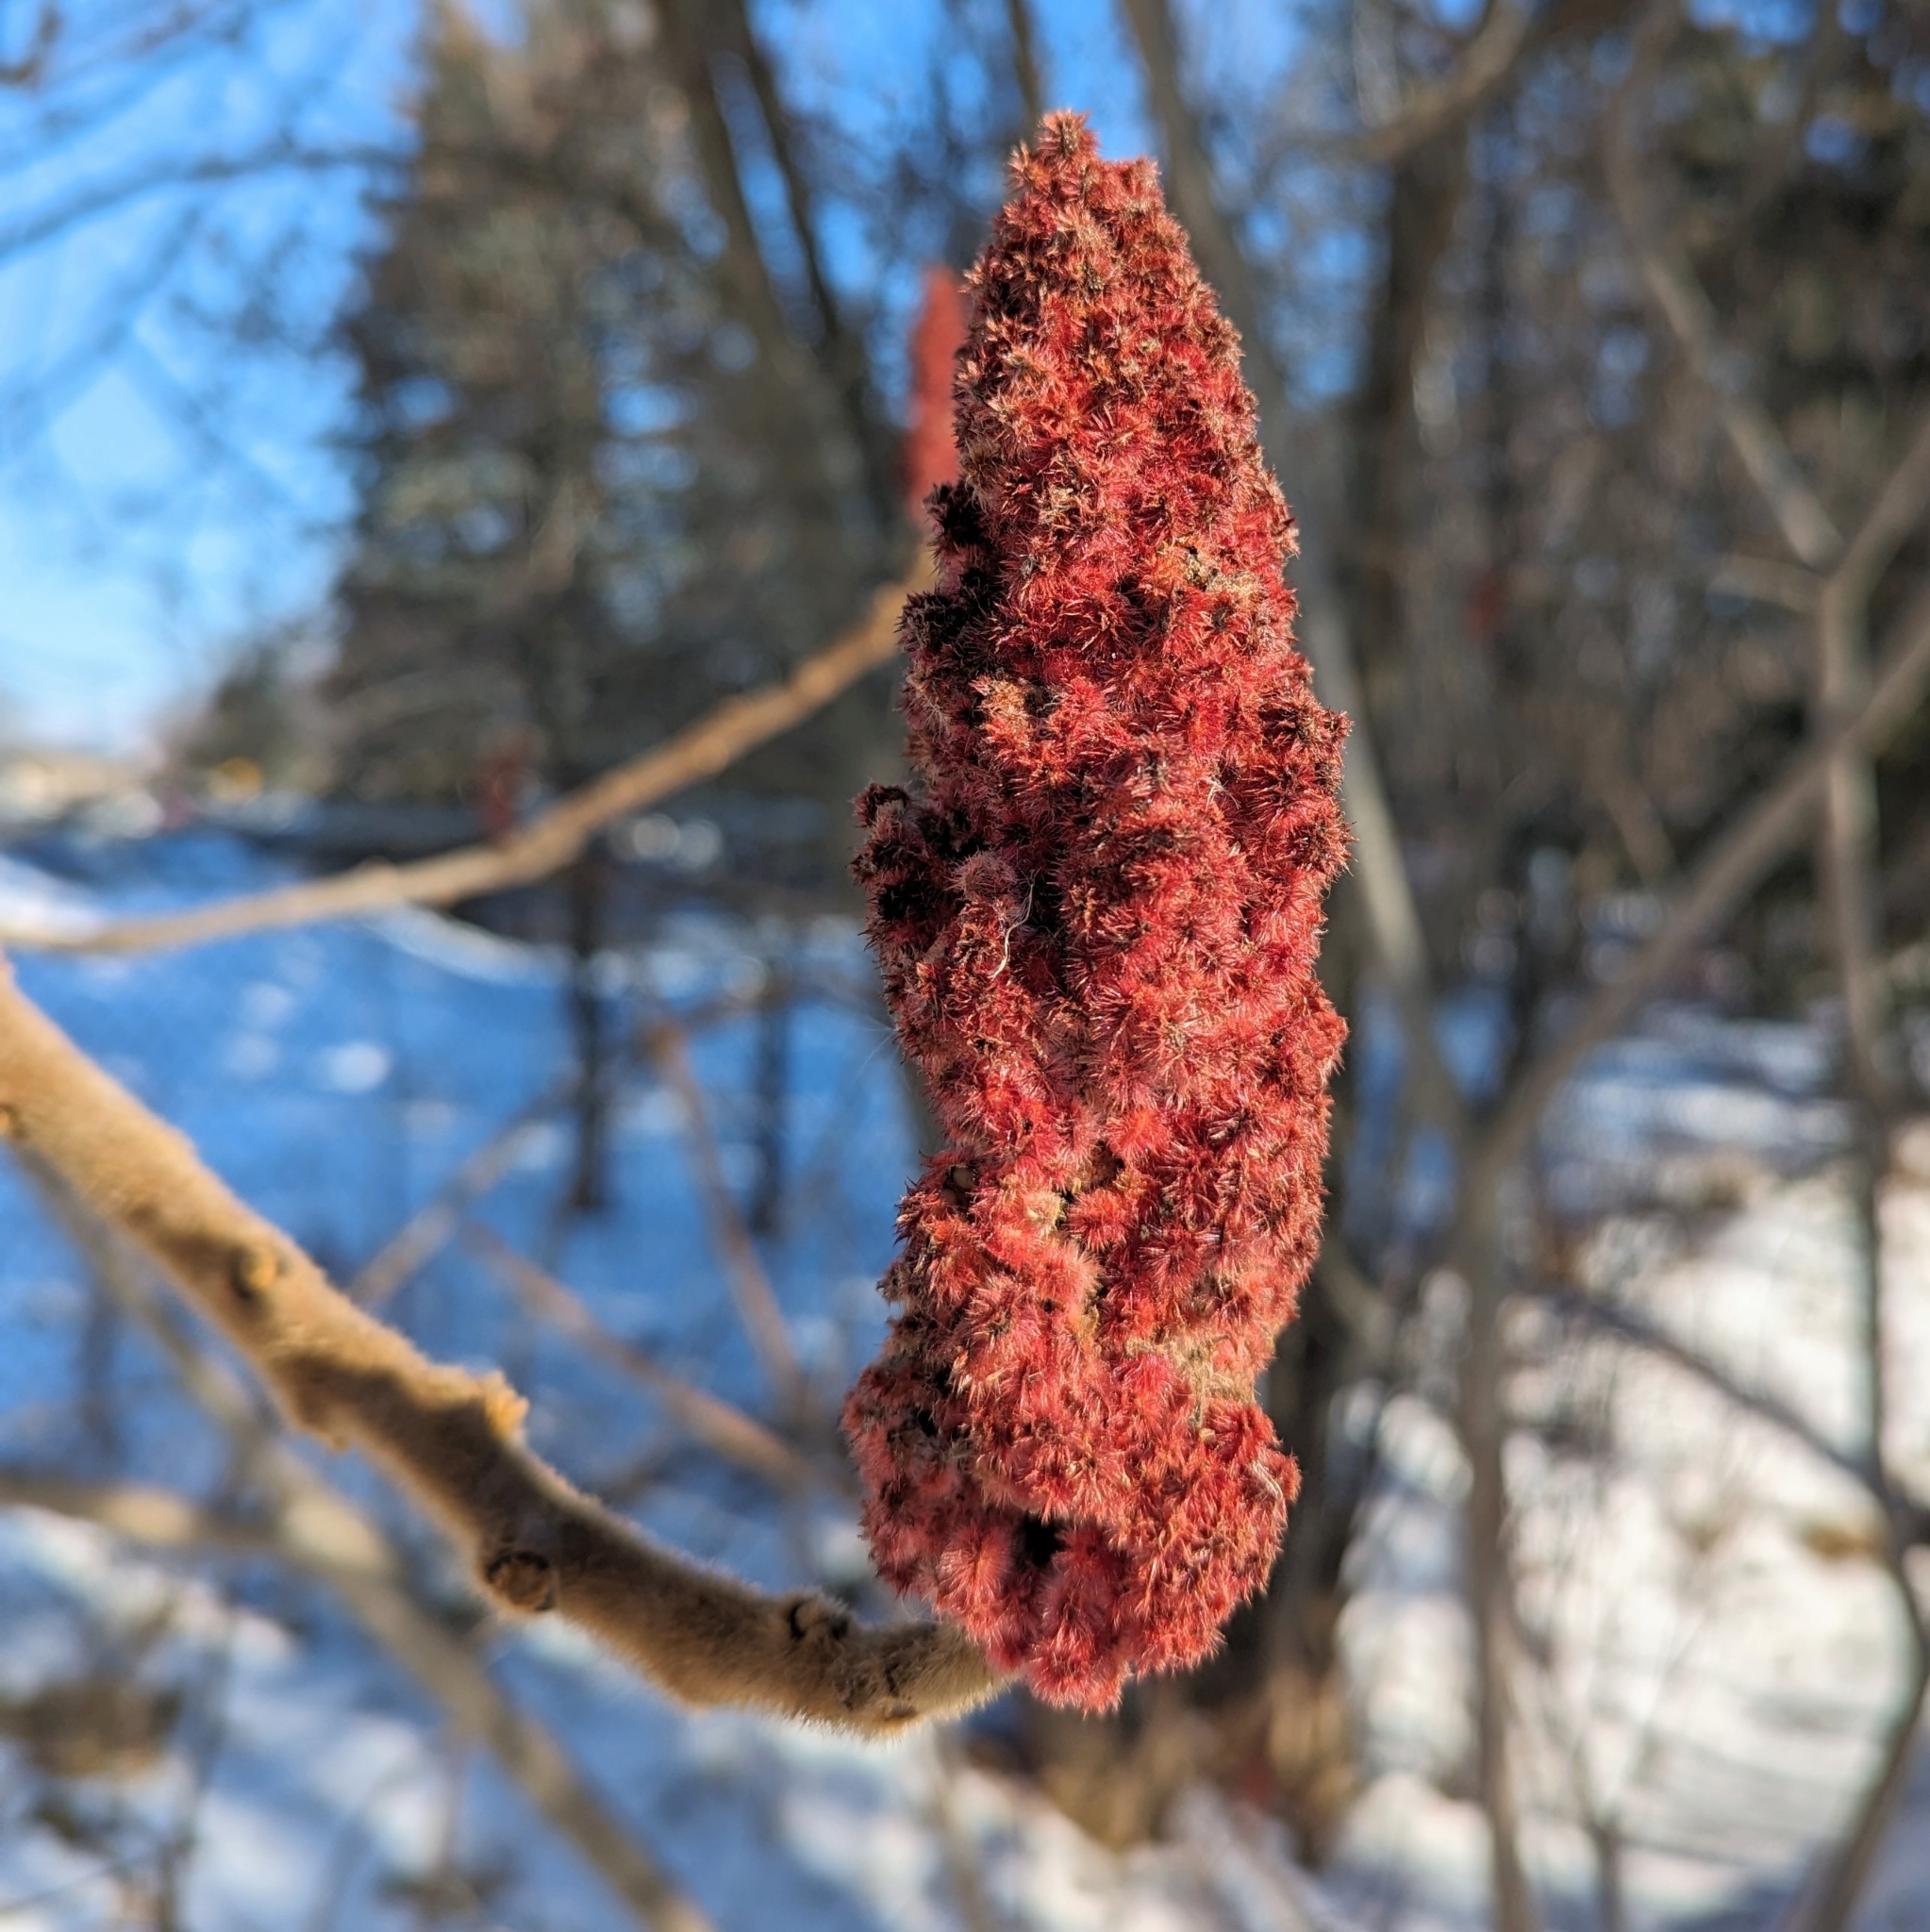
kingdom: Plantae
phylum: Tracheophyta
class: Magnoliopsida
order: Sapindales
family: Anacardiaceae
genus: Rhus
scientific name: Rhus typhina
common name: Staghorn sumac
